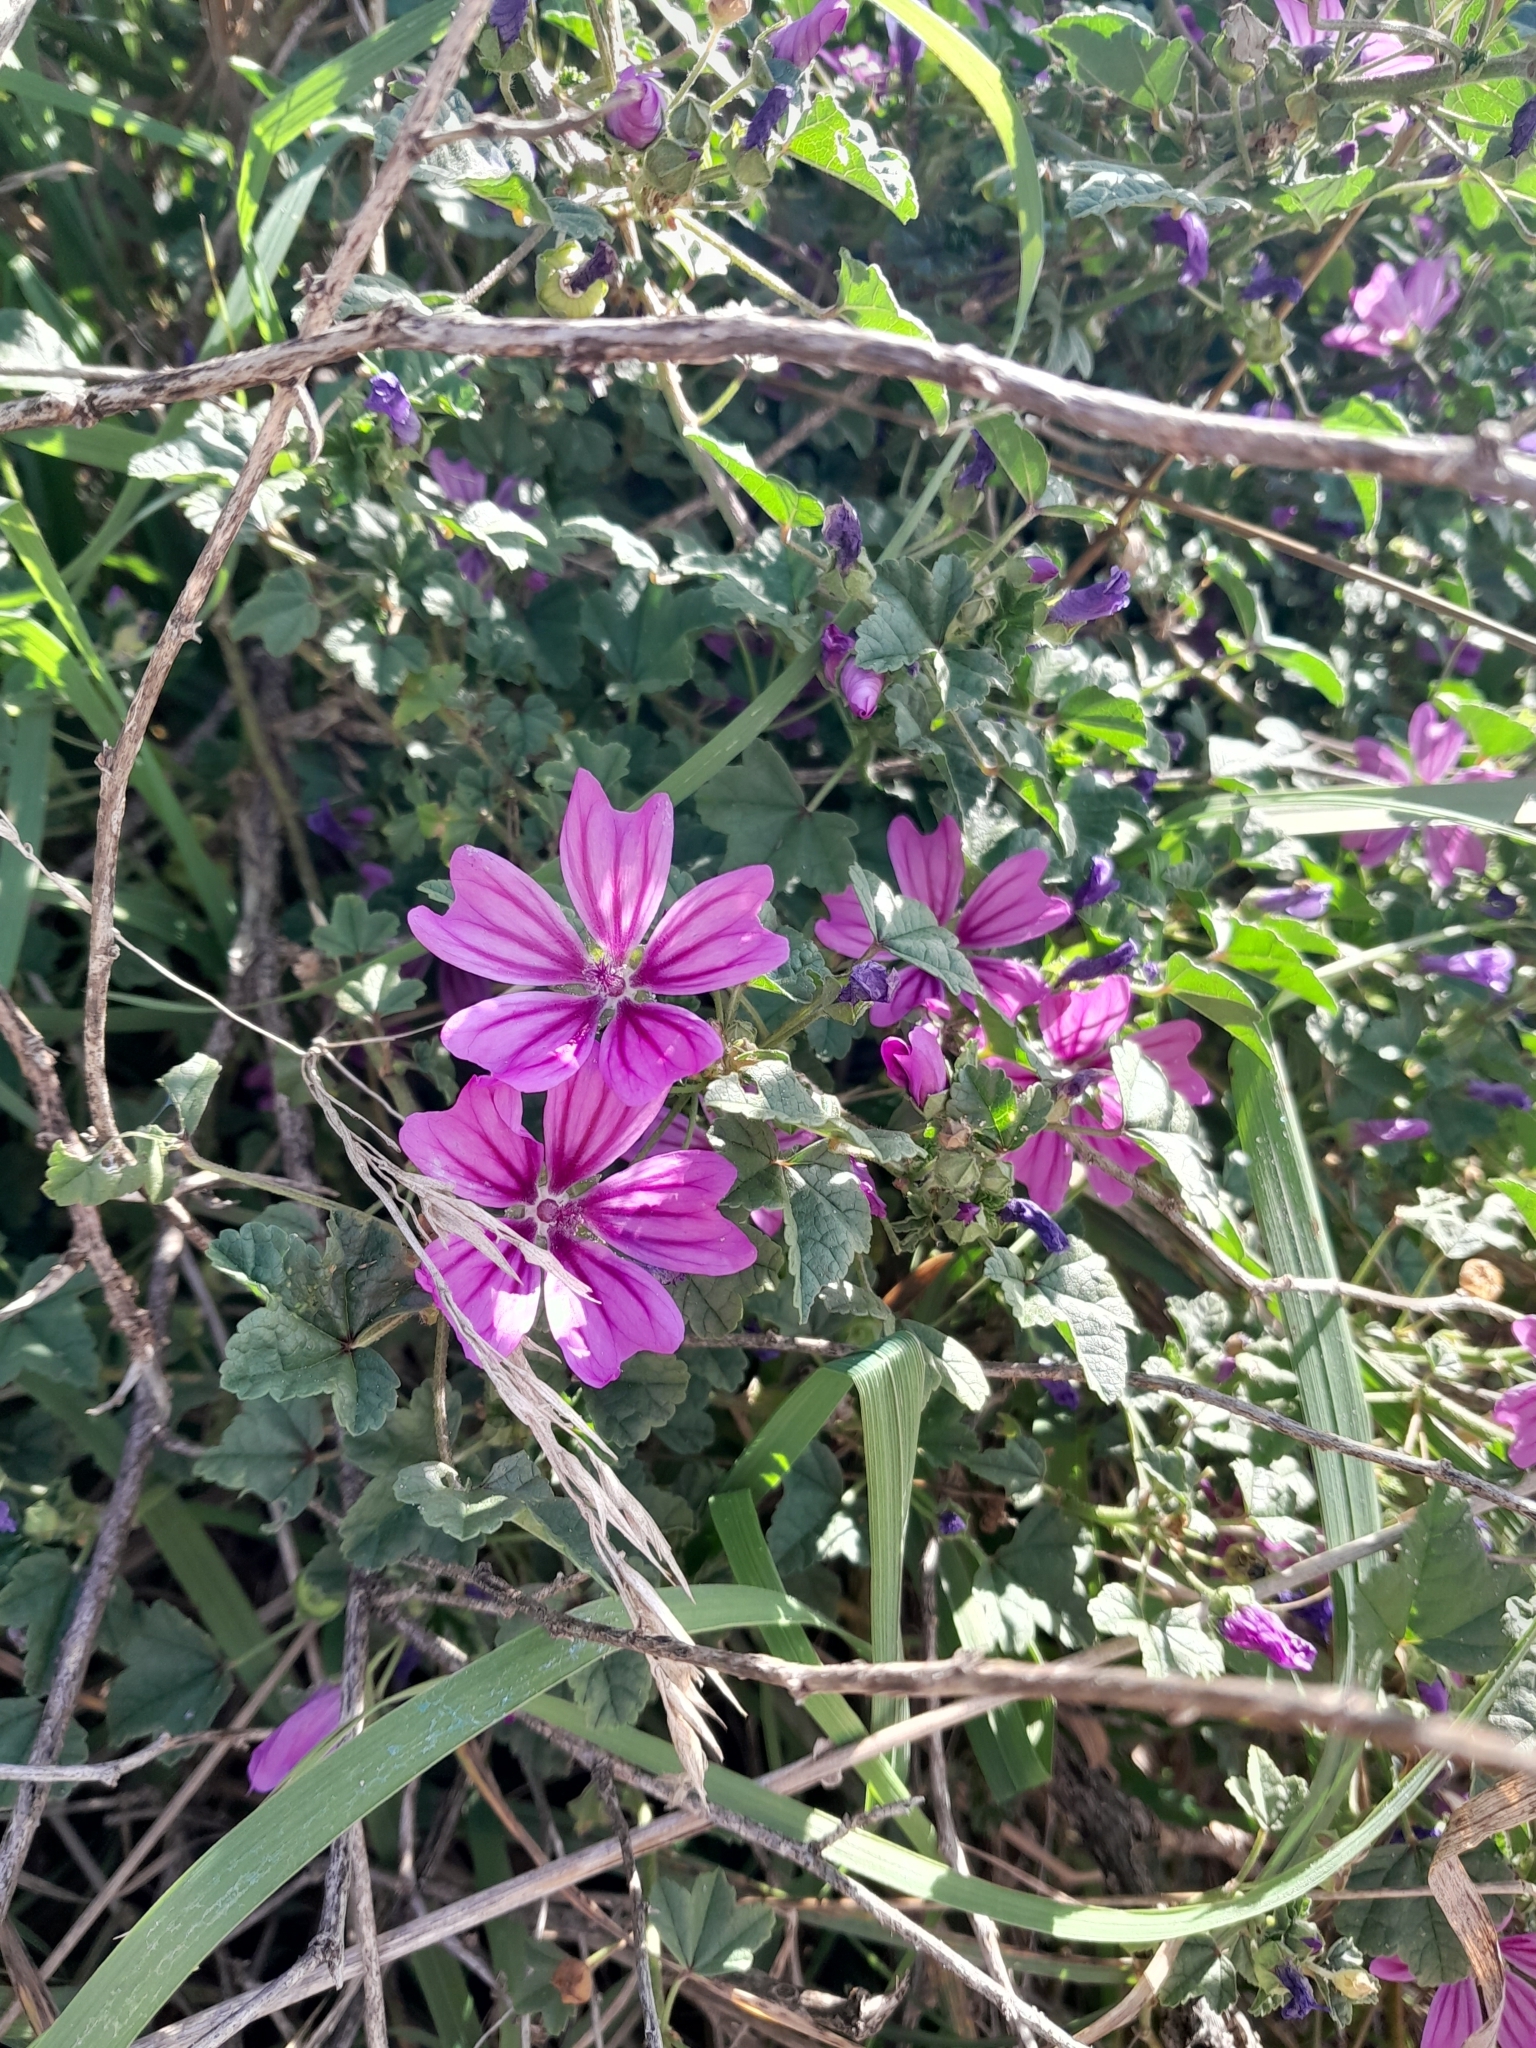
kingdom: Plantae
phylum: Tracheophyta
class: Magnoliopsida
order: Malvales
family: Malvaceae
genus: Malva
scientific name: Malva sylvestris
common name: Common mallow
